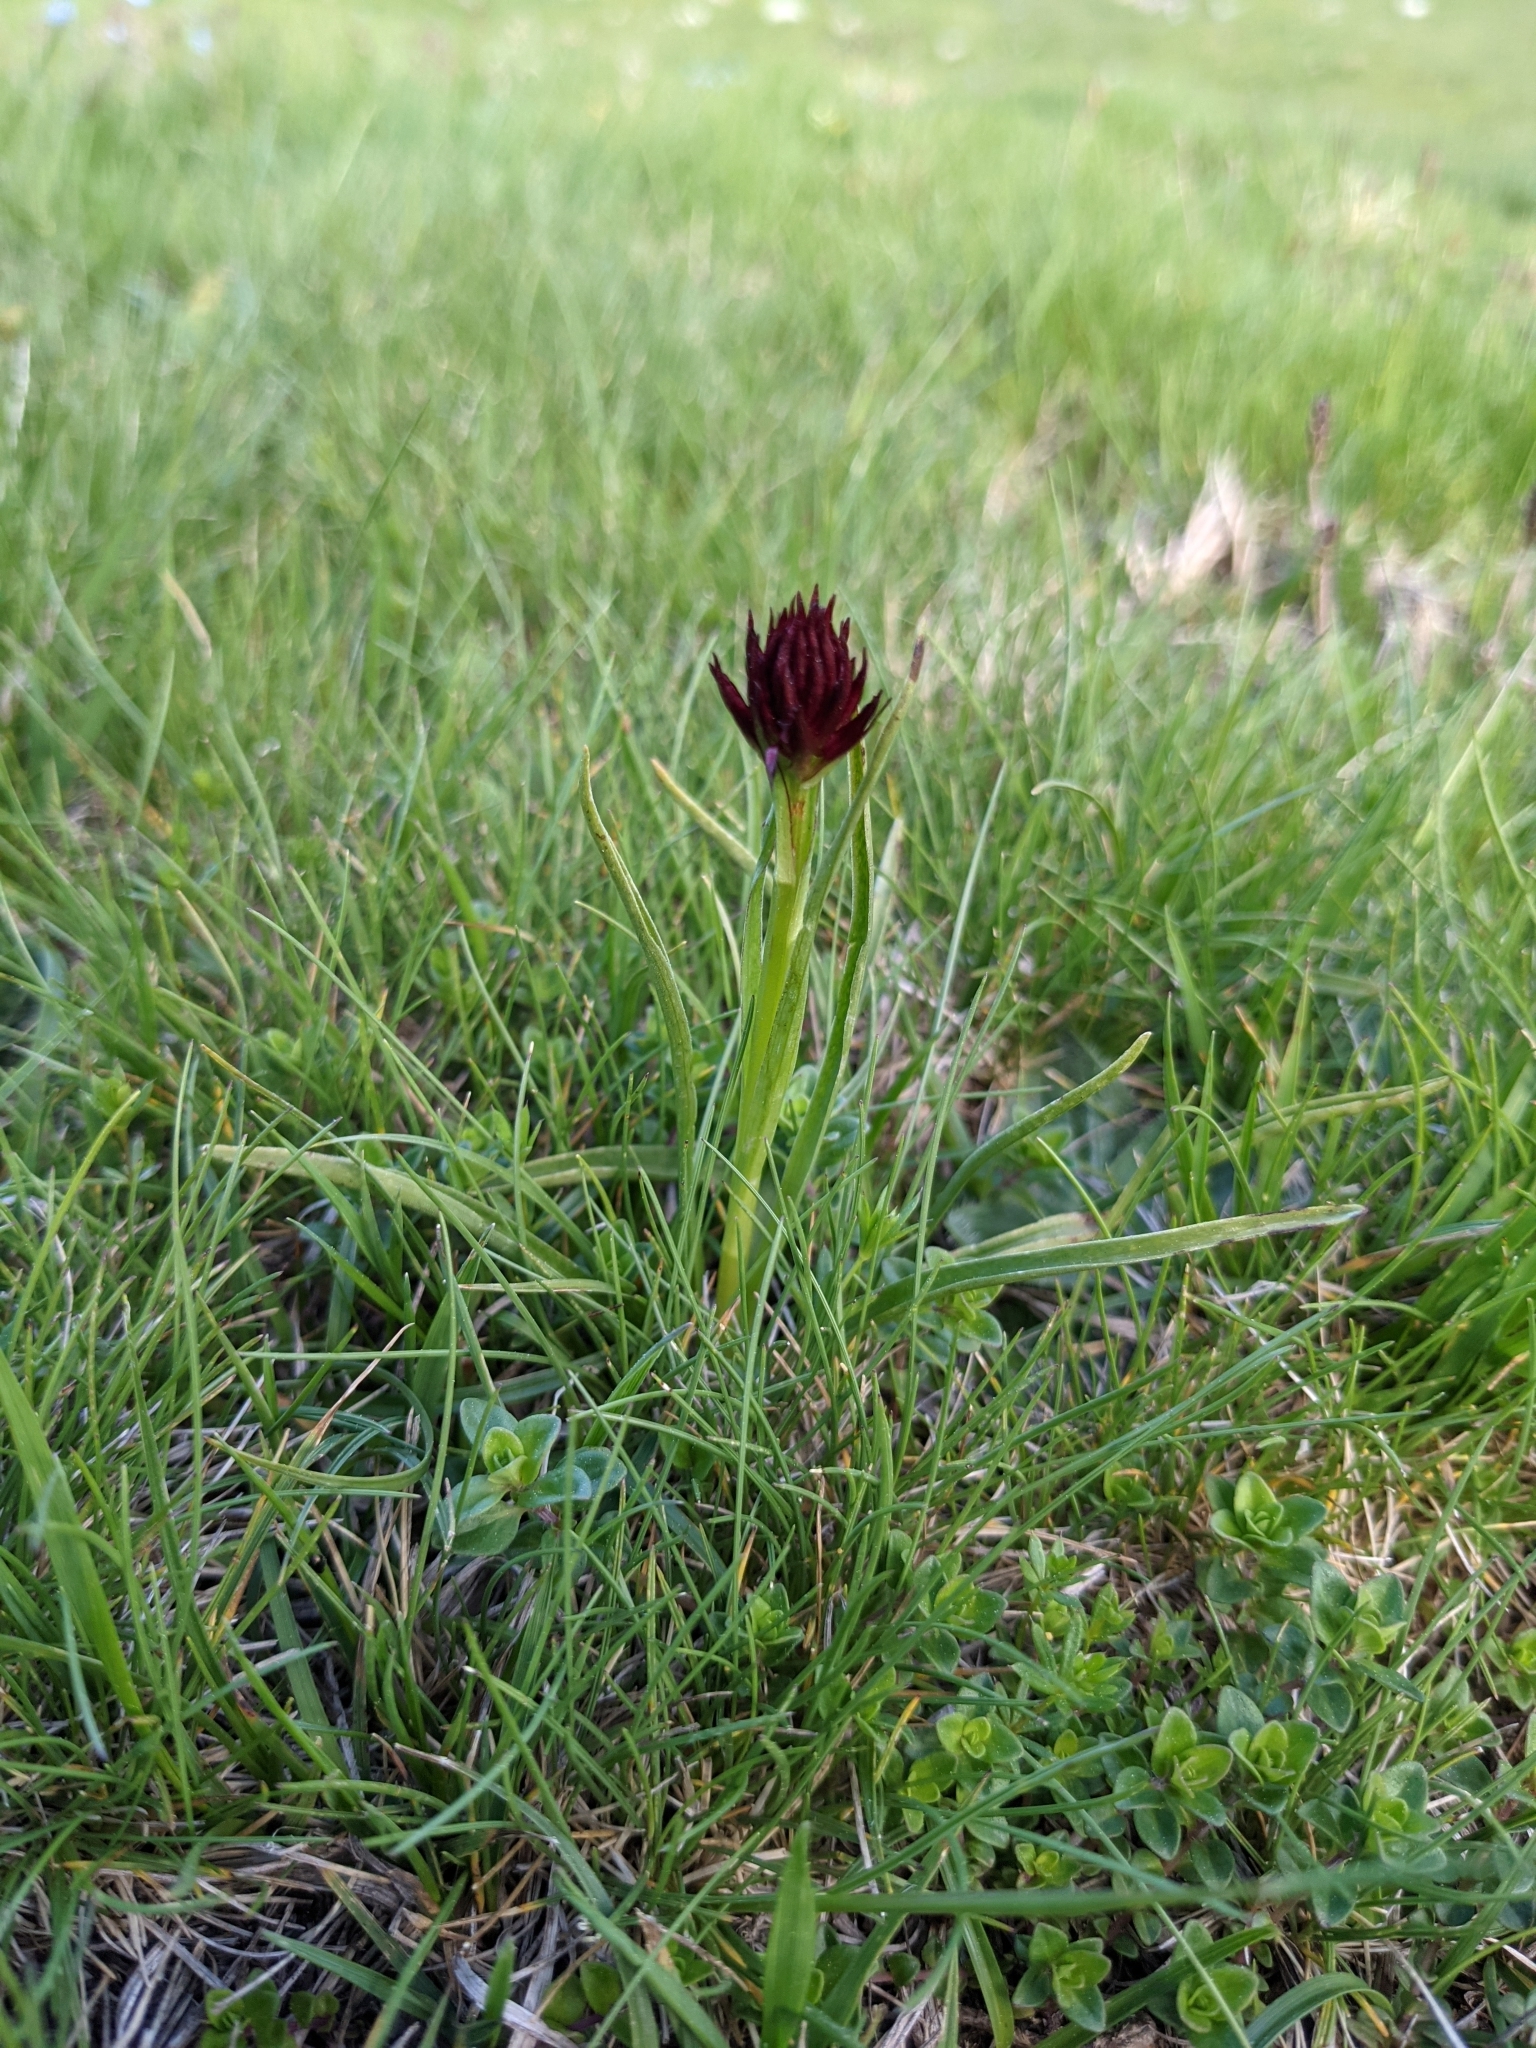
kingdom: Plantae
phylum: Tracheophyta
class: Liliopsida
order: Asparagales
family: Orchidaceae
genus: Gymnadenia
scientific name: Gymnadenia austriaca
